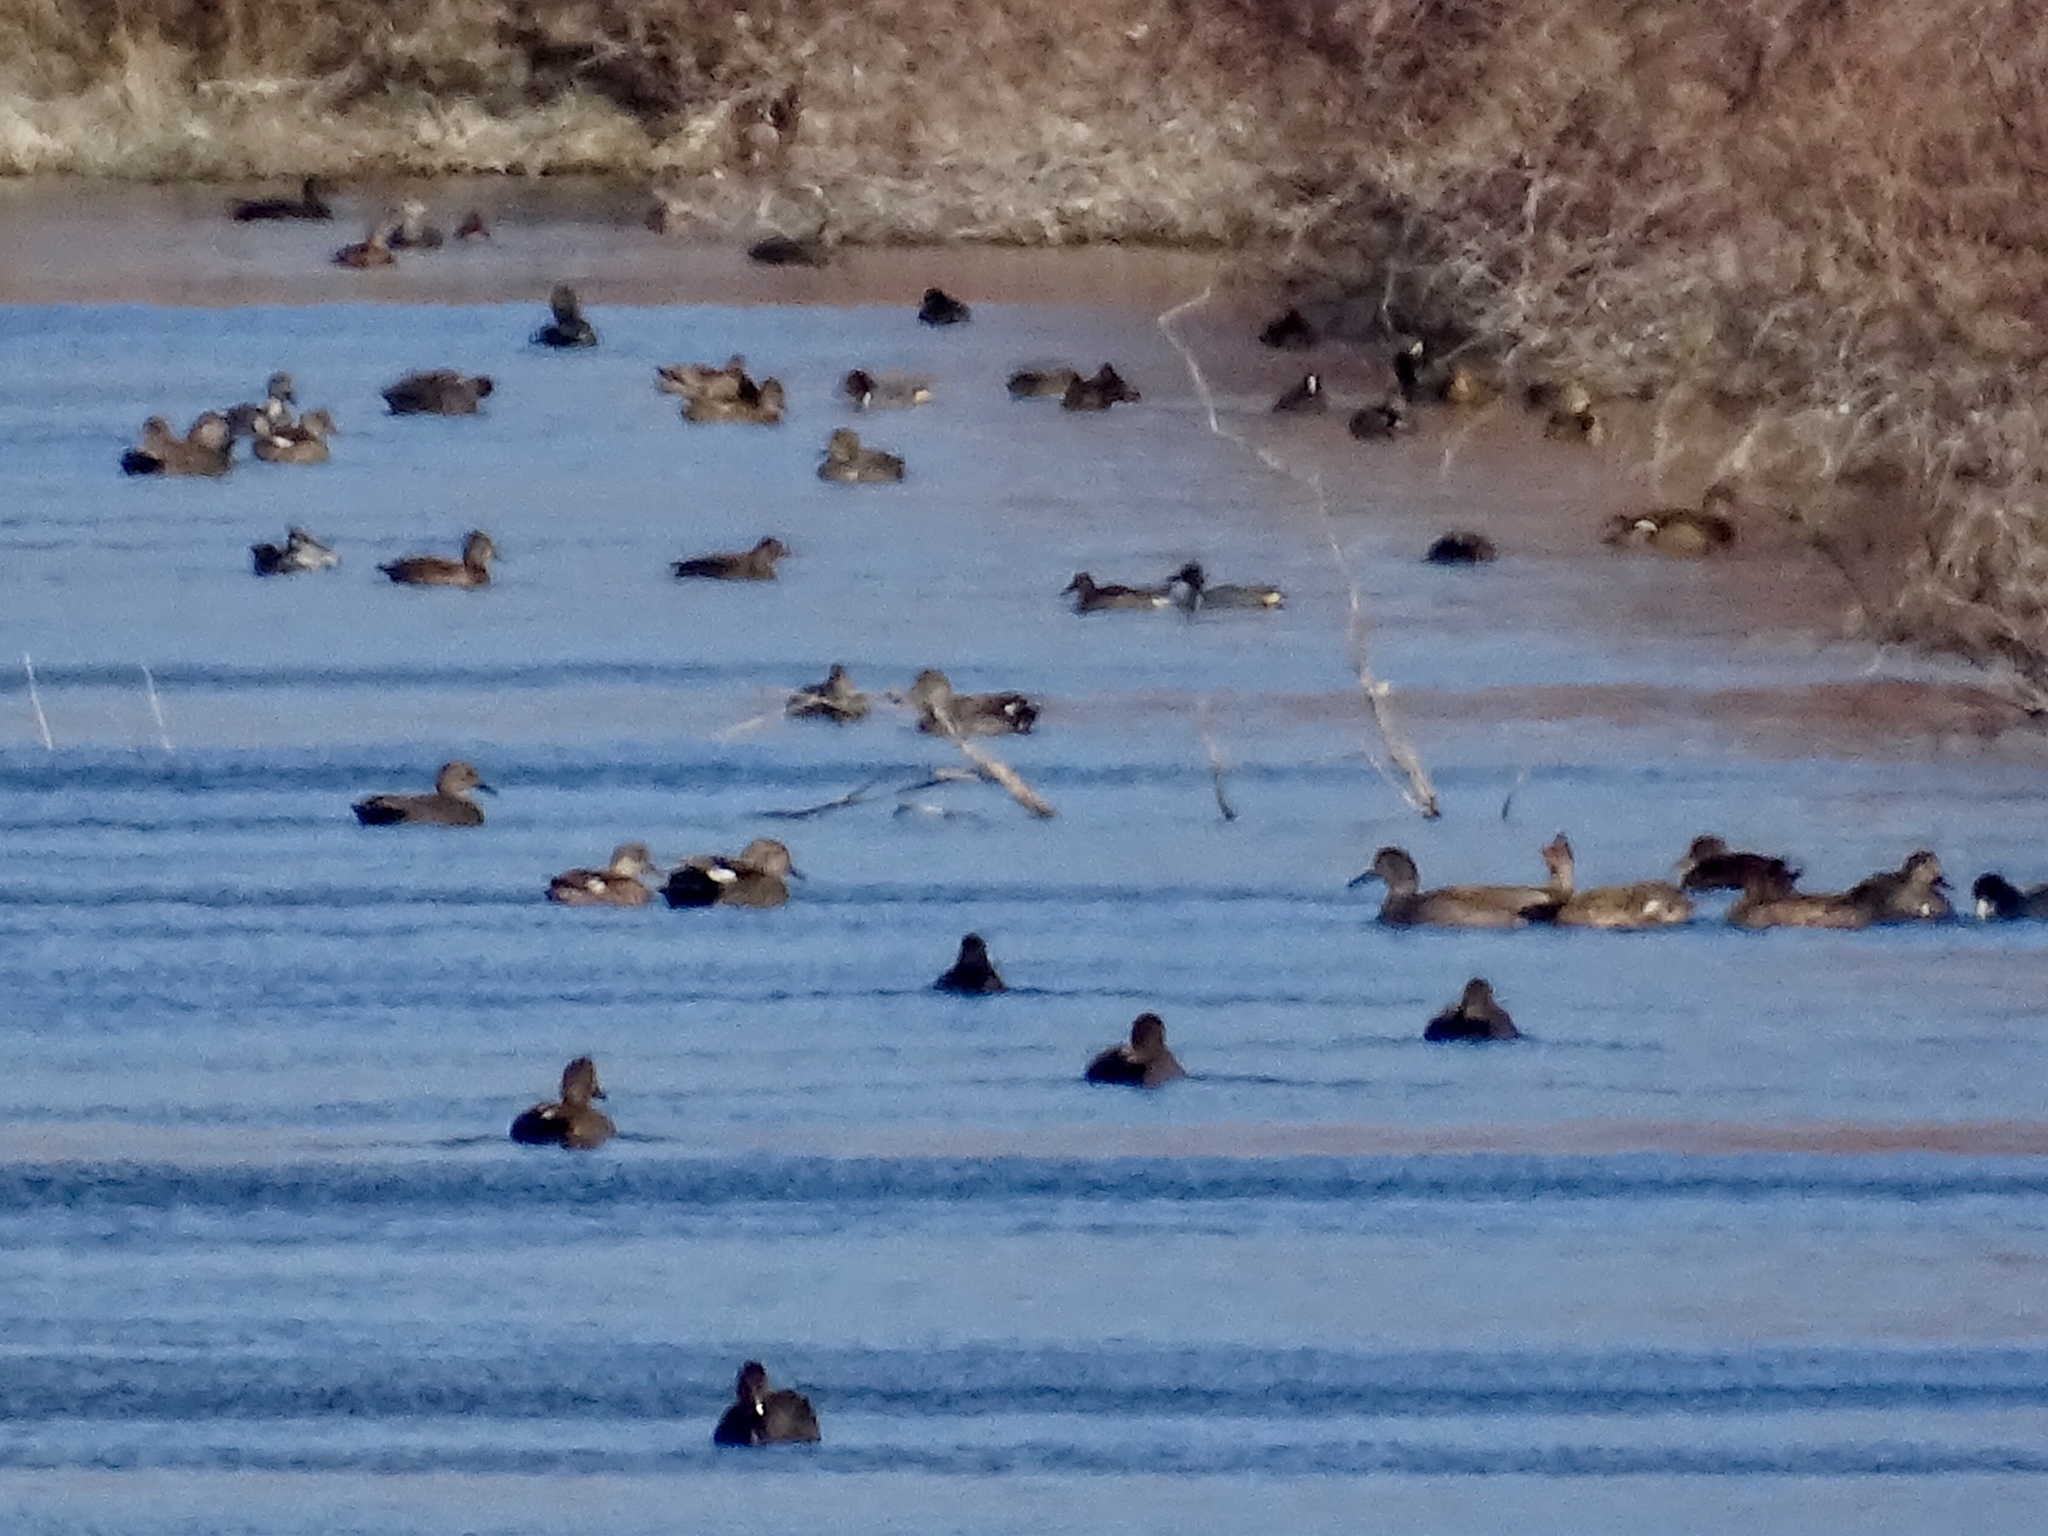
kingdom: Animalia
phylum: Chordata
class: Aves
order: Anseriformes
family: Anatidae
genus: Mareca
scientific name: Mareca strepera
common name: Gadwall
